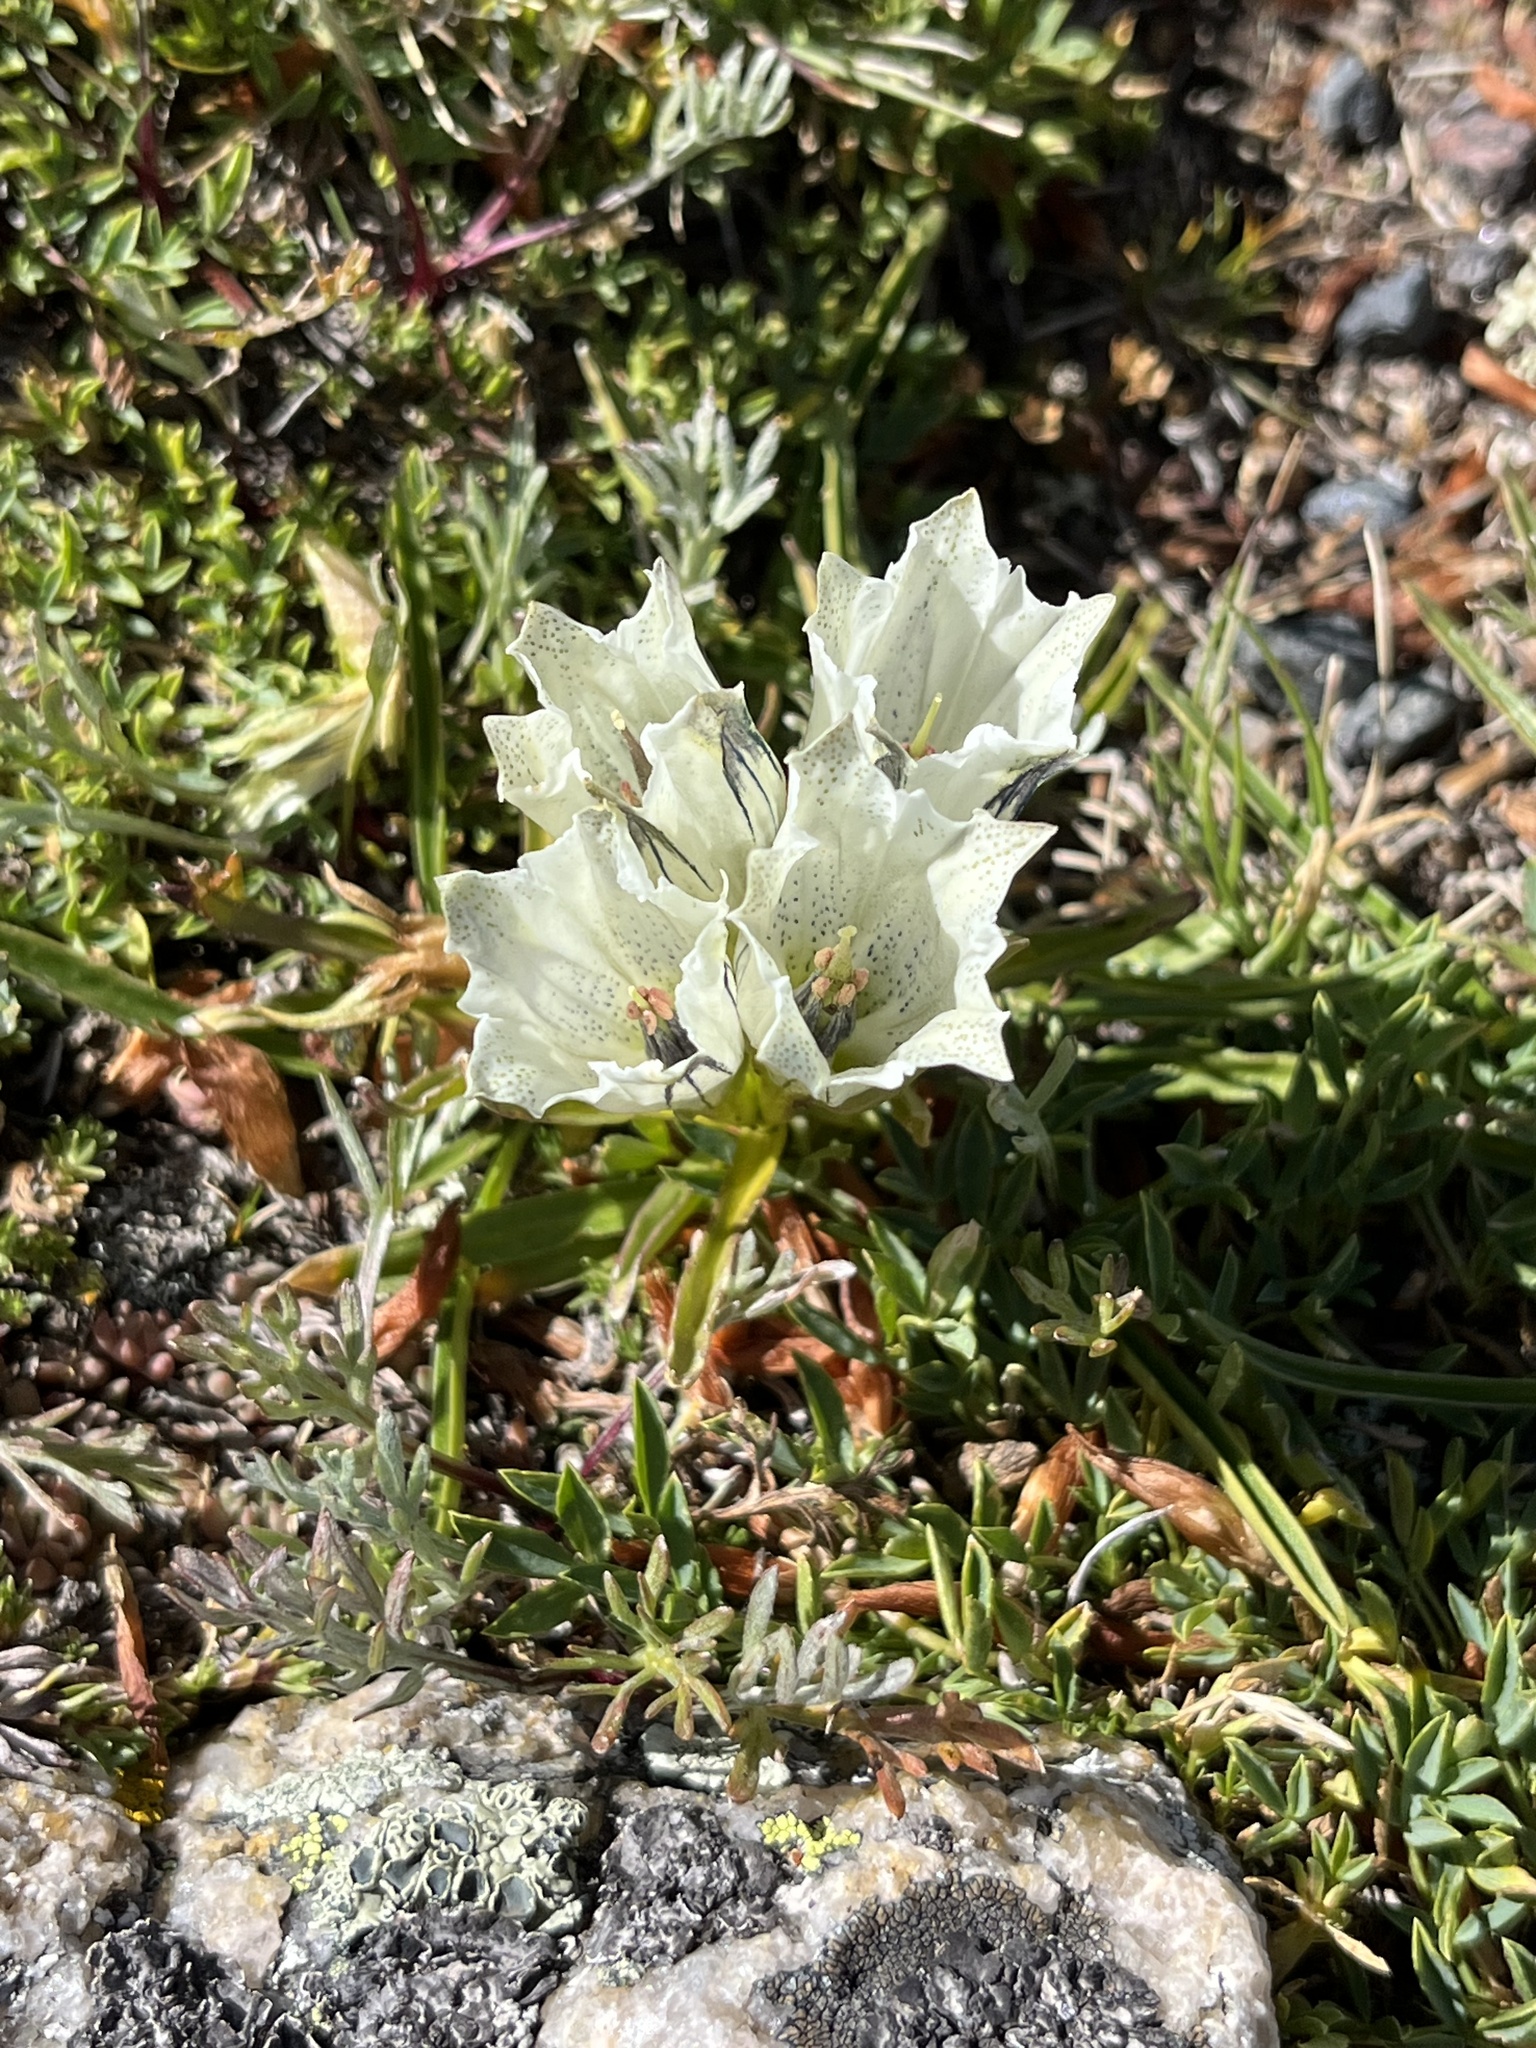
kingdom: Plantae
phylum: Tracheophyta
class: Magnoliopsida
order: Gentianales
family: Gentianaceae
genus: Gentiana
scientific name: Gentiana algida
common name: Arctic gentian
